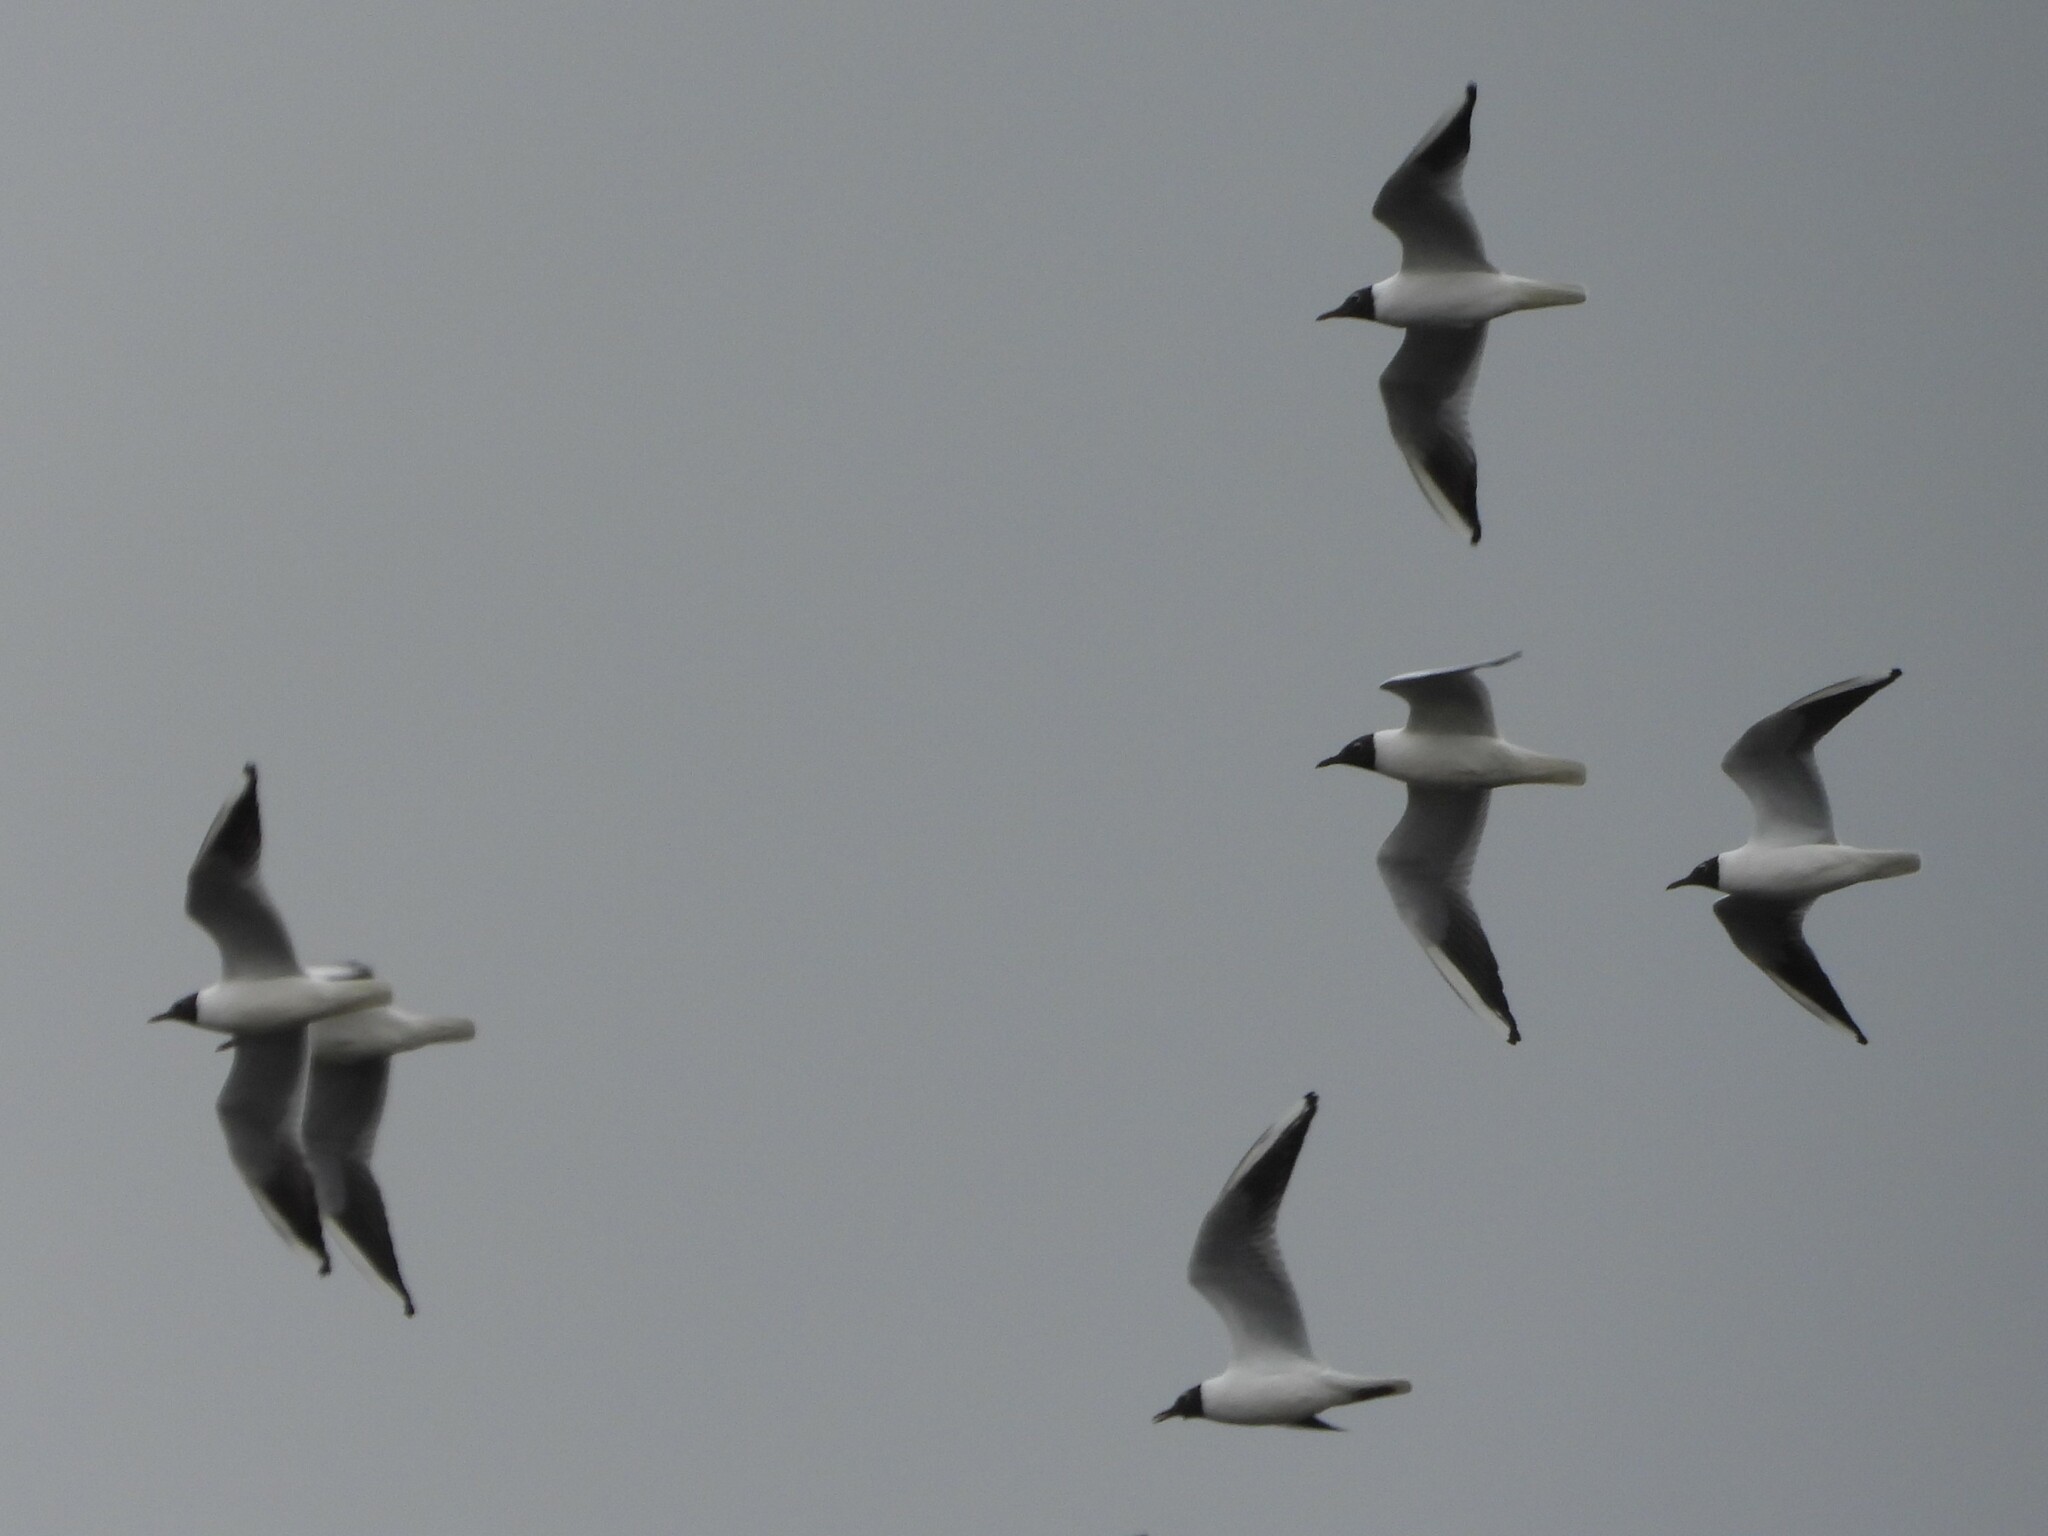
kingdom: Animalia
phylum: Chordata
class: Aves
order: Charadriiformes
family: Laridae
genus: Chroicocephalus
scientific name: Chroicocephalus ridibundus
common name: Black-headed gull
